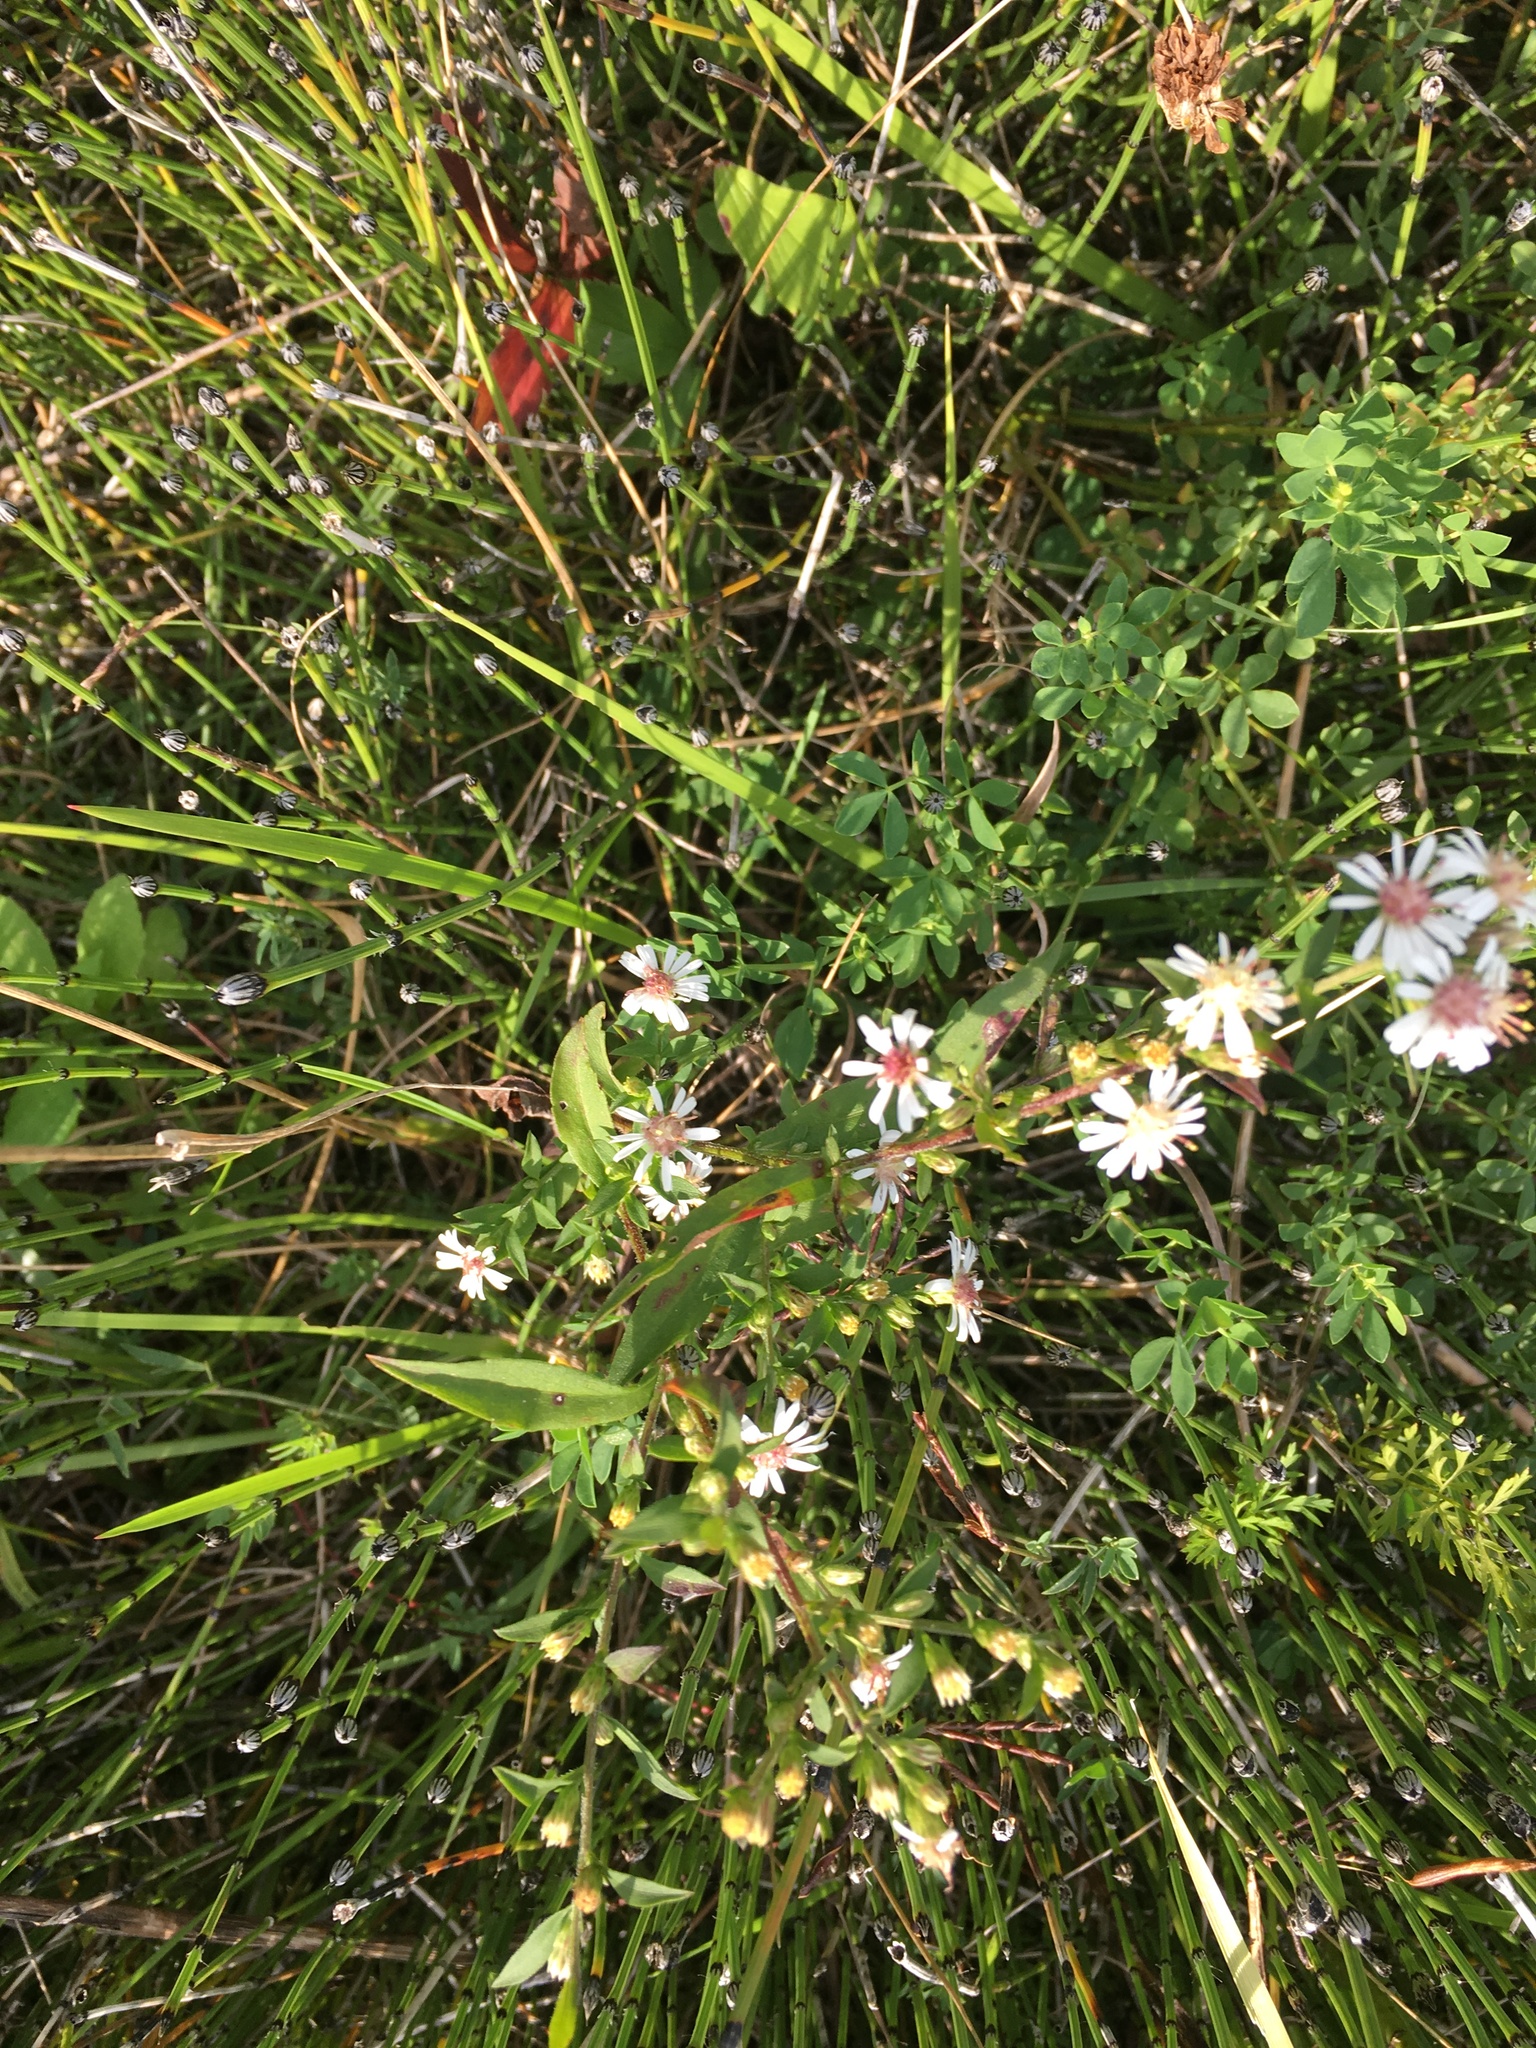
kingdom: Plantae
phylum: Tracheophyta
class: Magnoliopsida
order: Asterales
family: Asteraceae
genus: Symphyotrichum
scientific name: Symphyotrichum lateriflorum
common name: Calico aster
